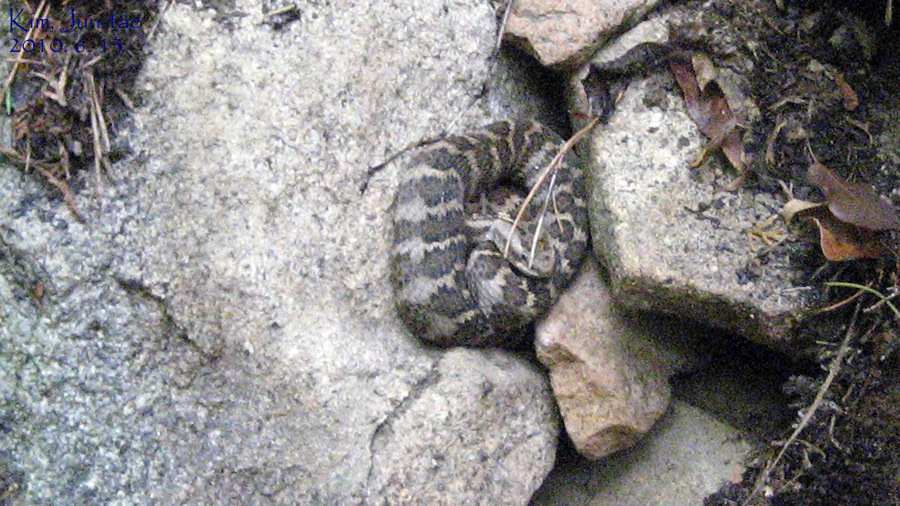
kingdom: Animalia
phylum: Chordata
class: Squamata
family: Viperidae
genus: Gloydius
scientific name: Gloydius intermedius
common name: Central asian pit viper
